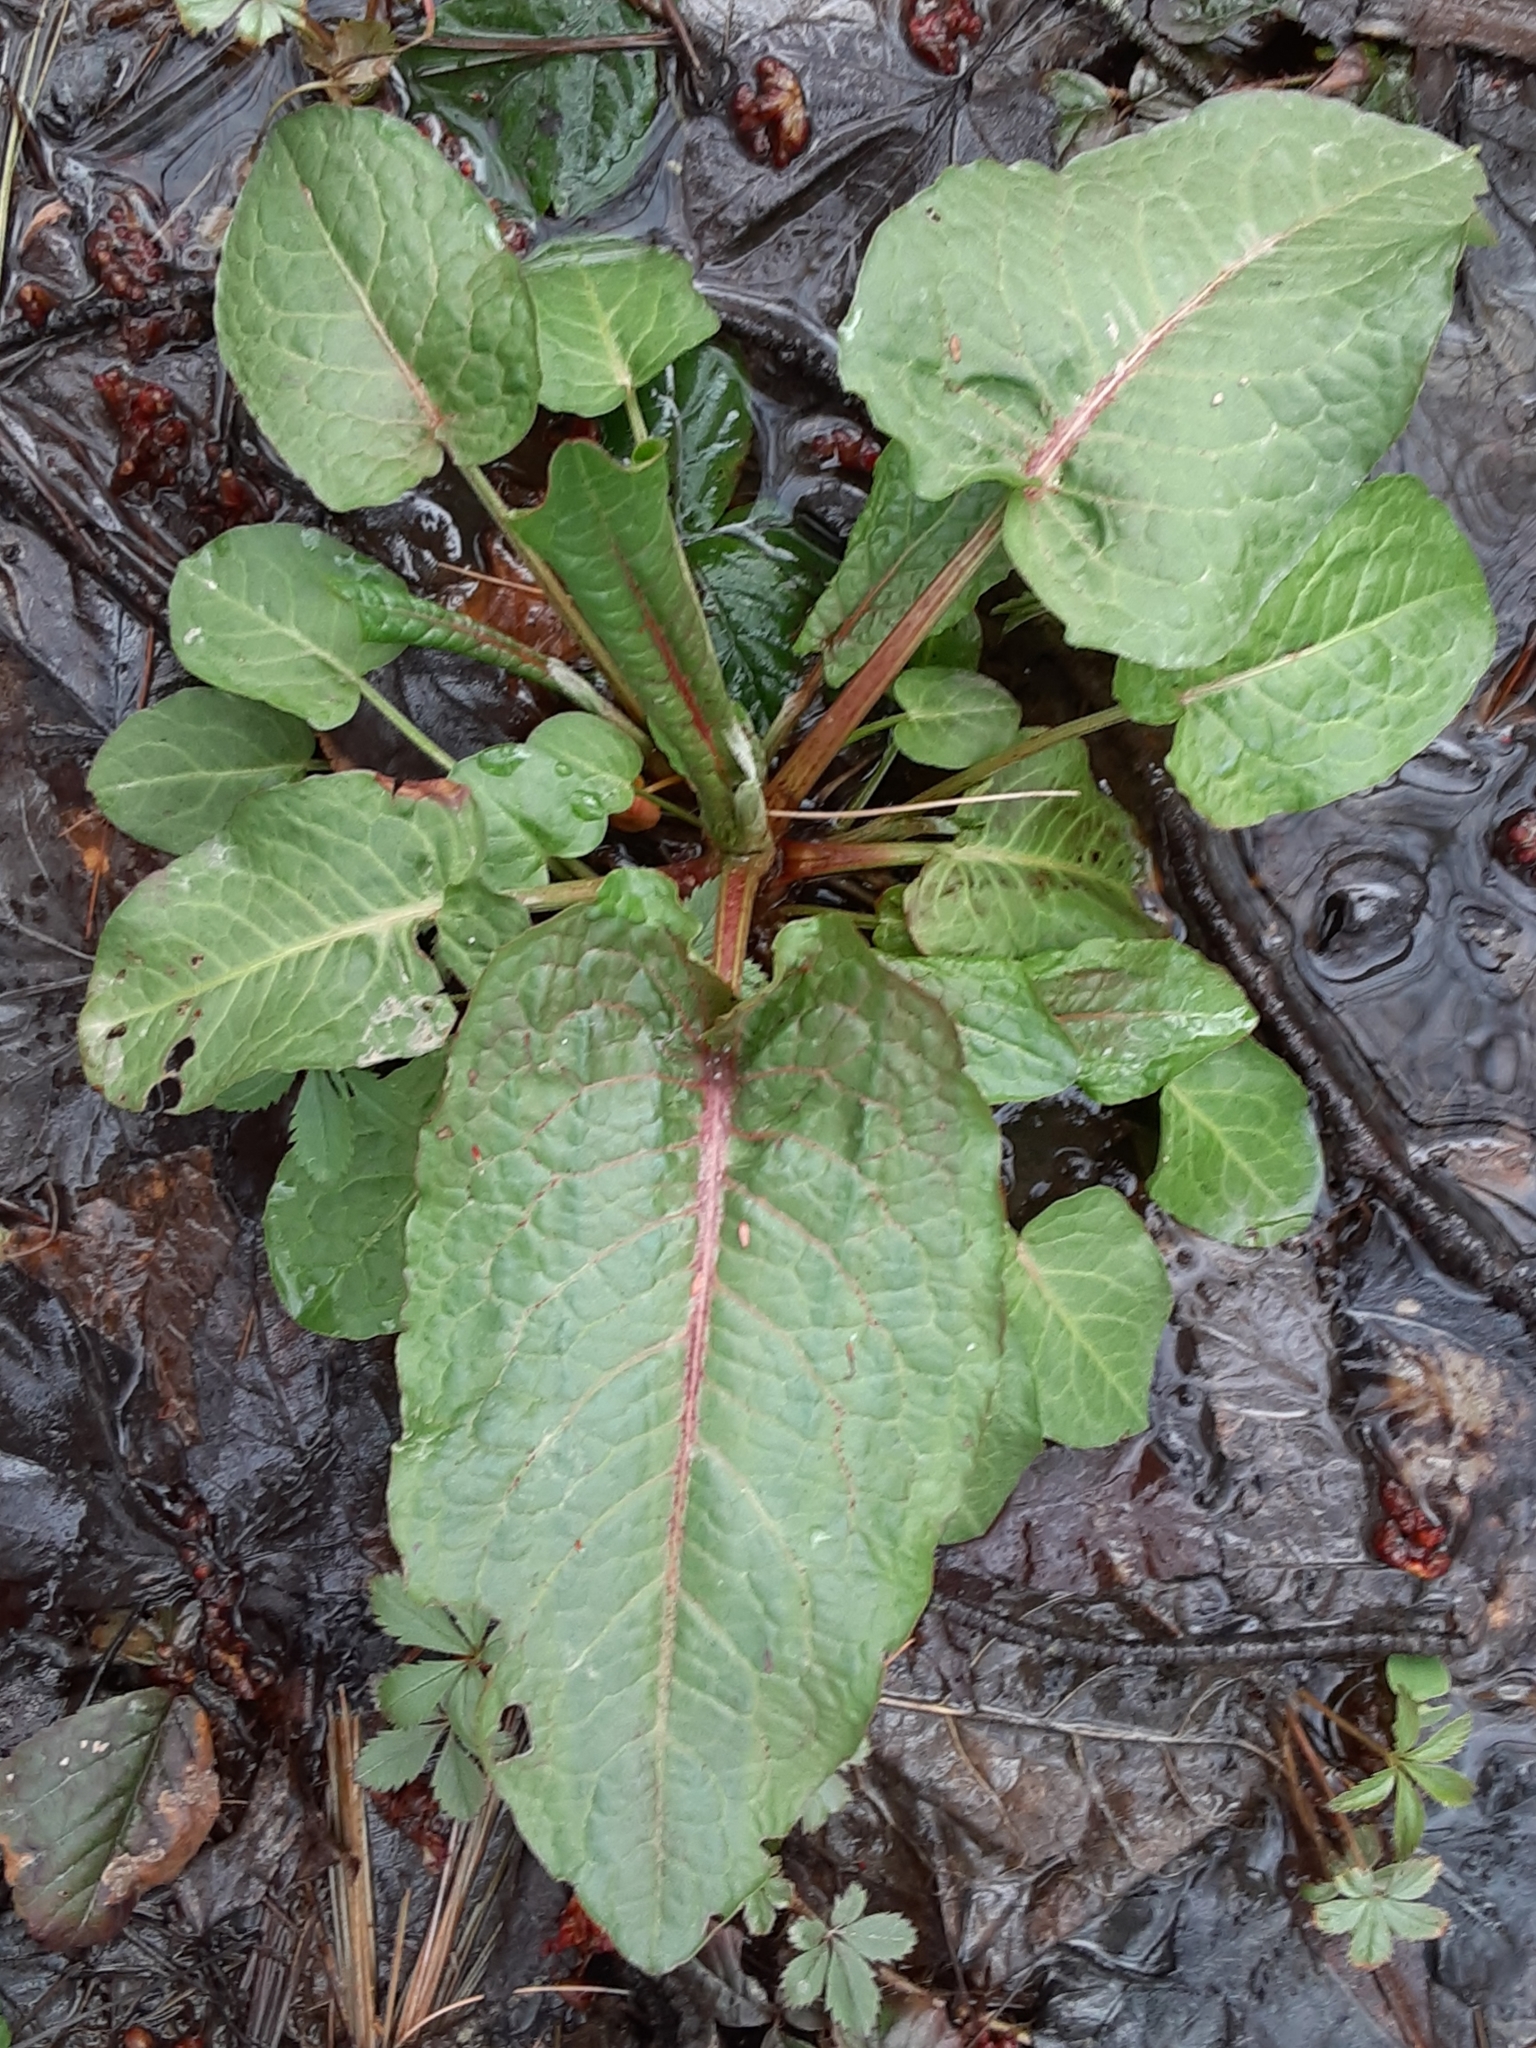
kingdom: Plantae
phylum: Tracheophyta
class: Magnoliopsida
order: Caryophyllales
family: Polygonaceae
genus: Rumex
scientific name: Rumex obtusifolius
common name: Bitter dock
